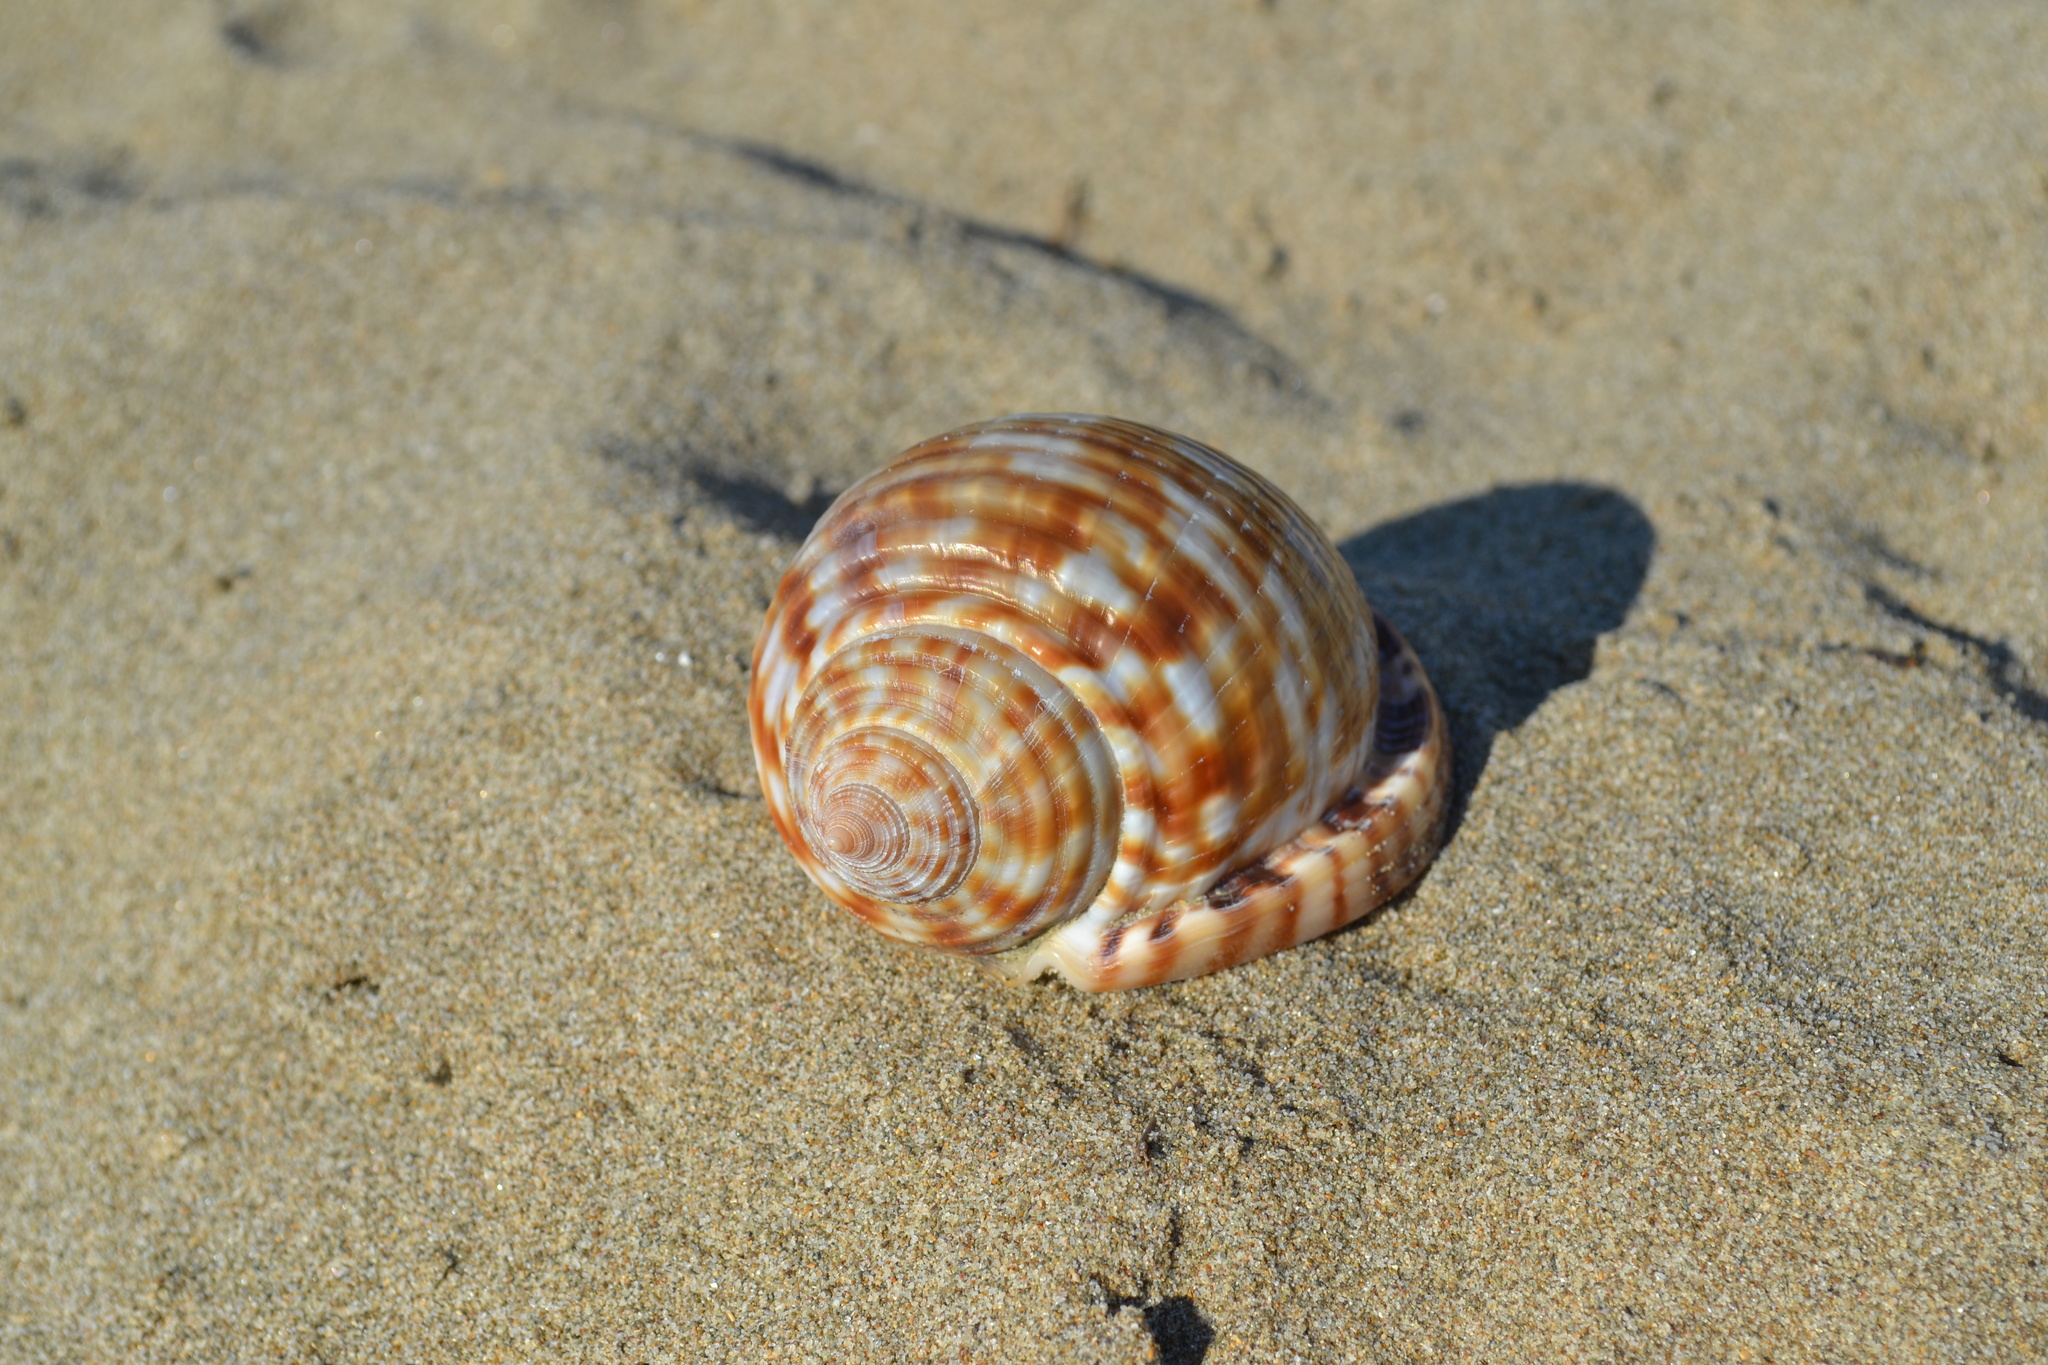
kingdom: Animalia
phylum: Mollusca
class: Gastropoda
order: Littorinimorpha
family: Cassidae
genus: Semicassis
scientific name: Semicassis undulata
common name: Mediterranean bonnet
